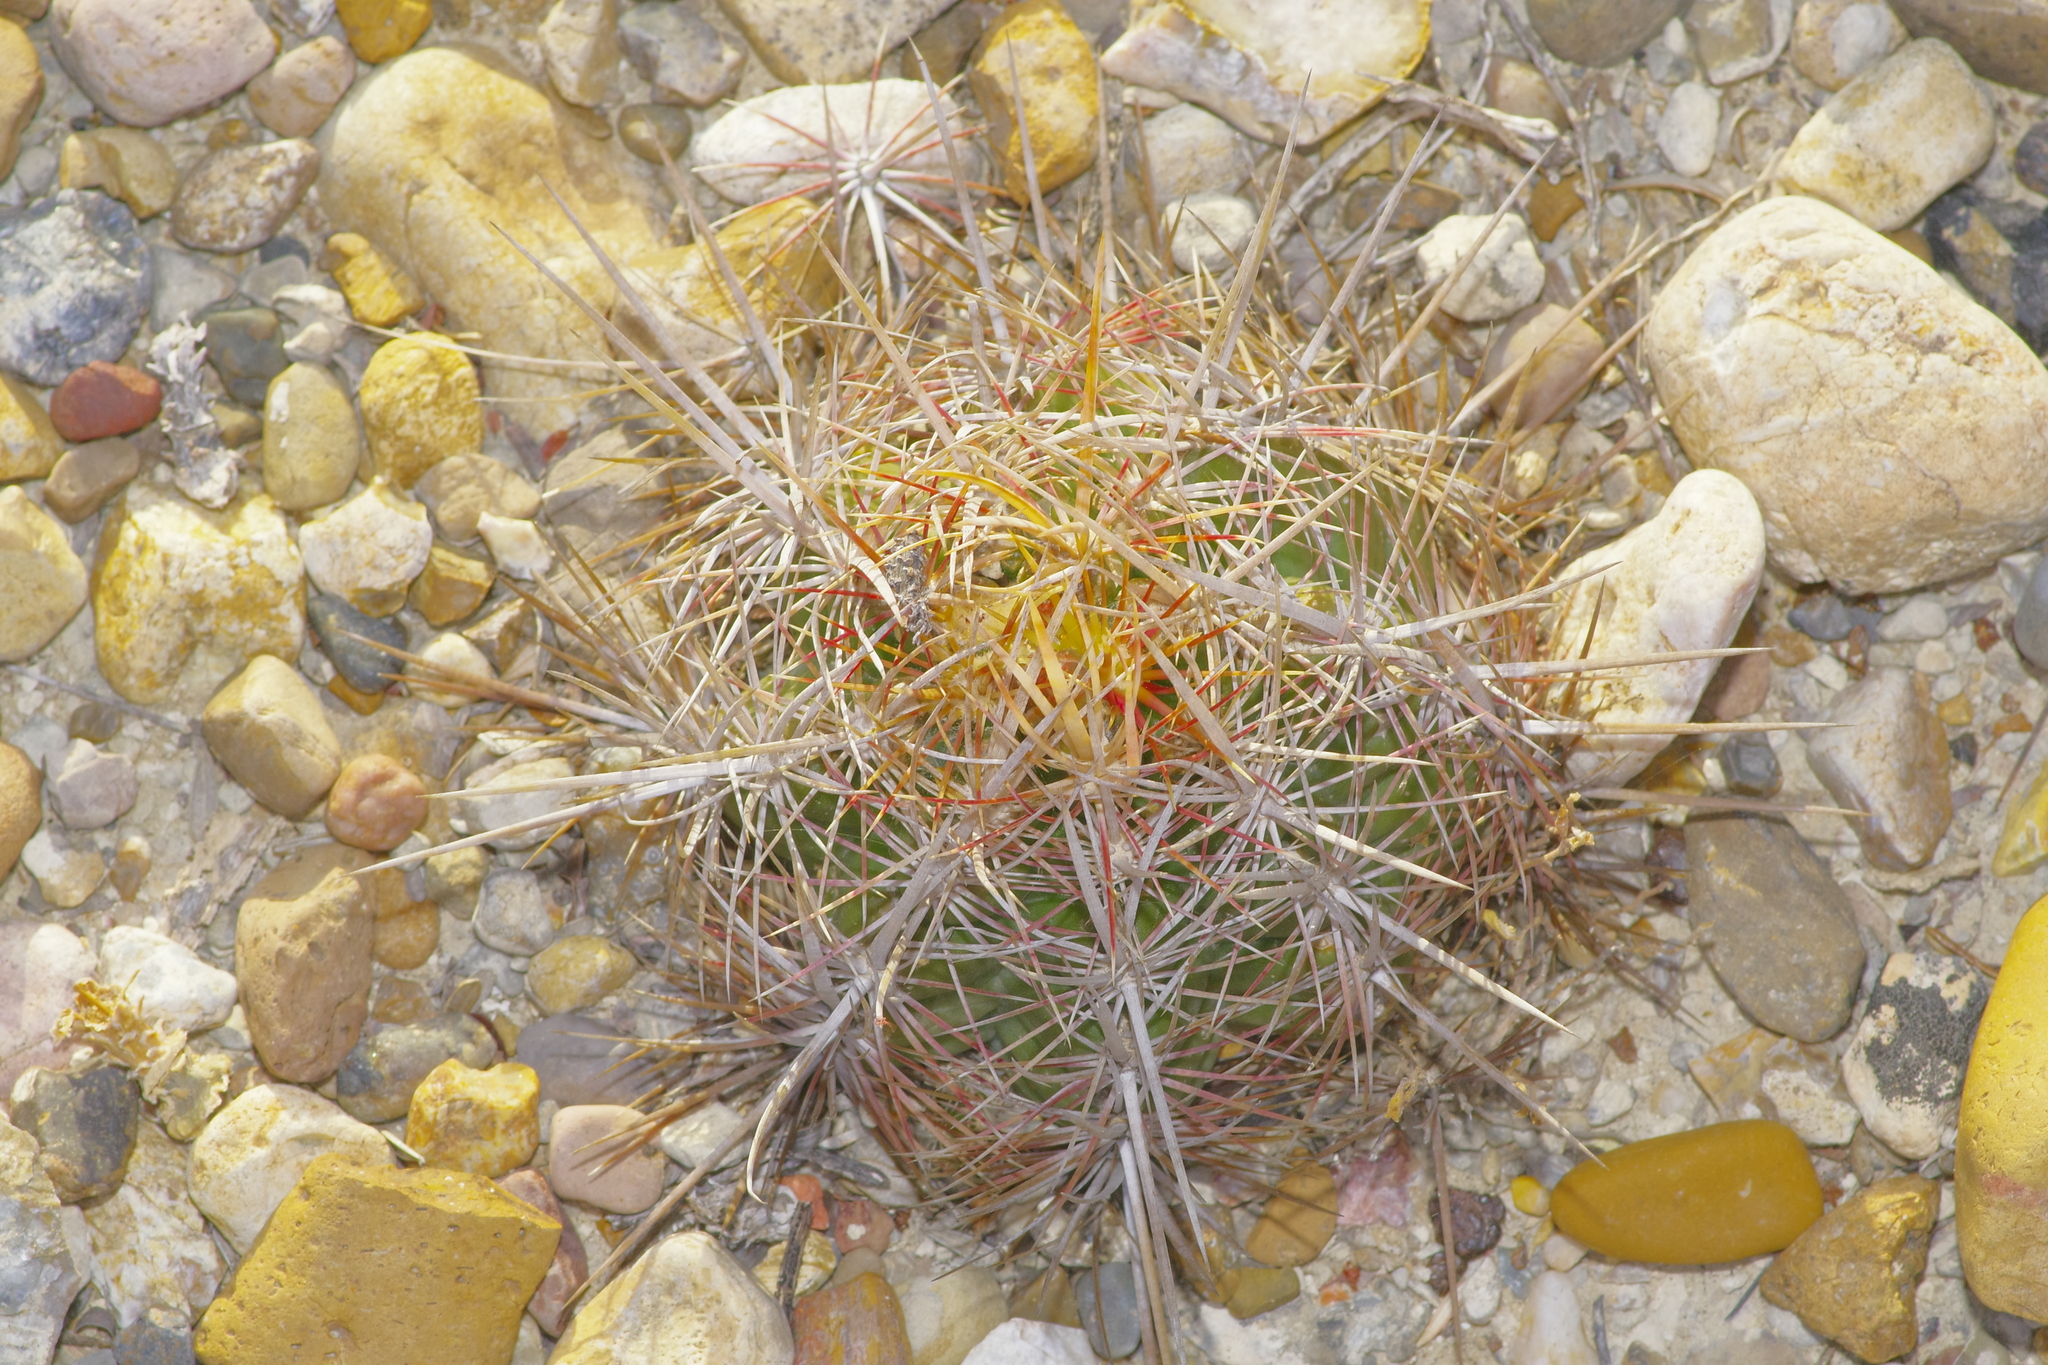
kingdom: Plantae
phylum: Tracheophyta
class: Magnoliopsida
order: Caryophyllales
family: Cactaceae
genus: Thelocactus
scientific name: Thelocactus bicolor
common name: Glory of texas
